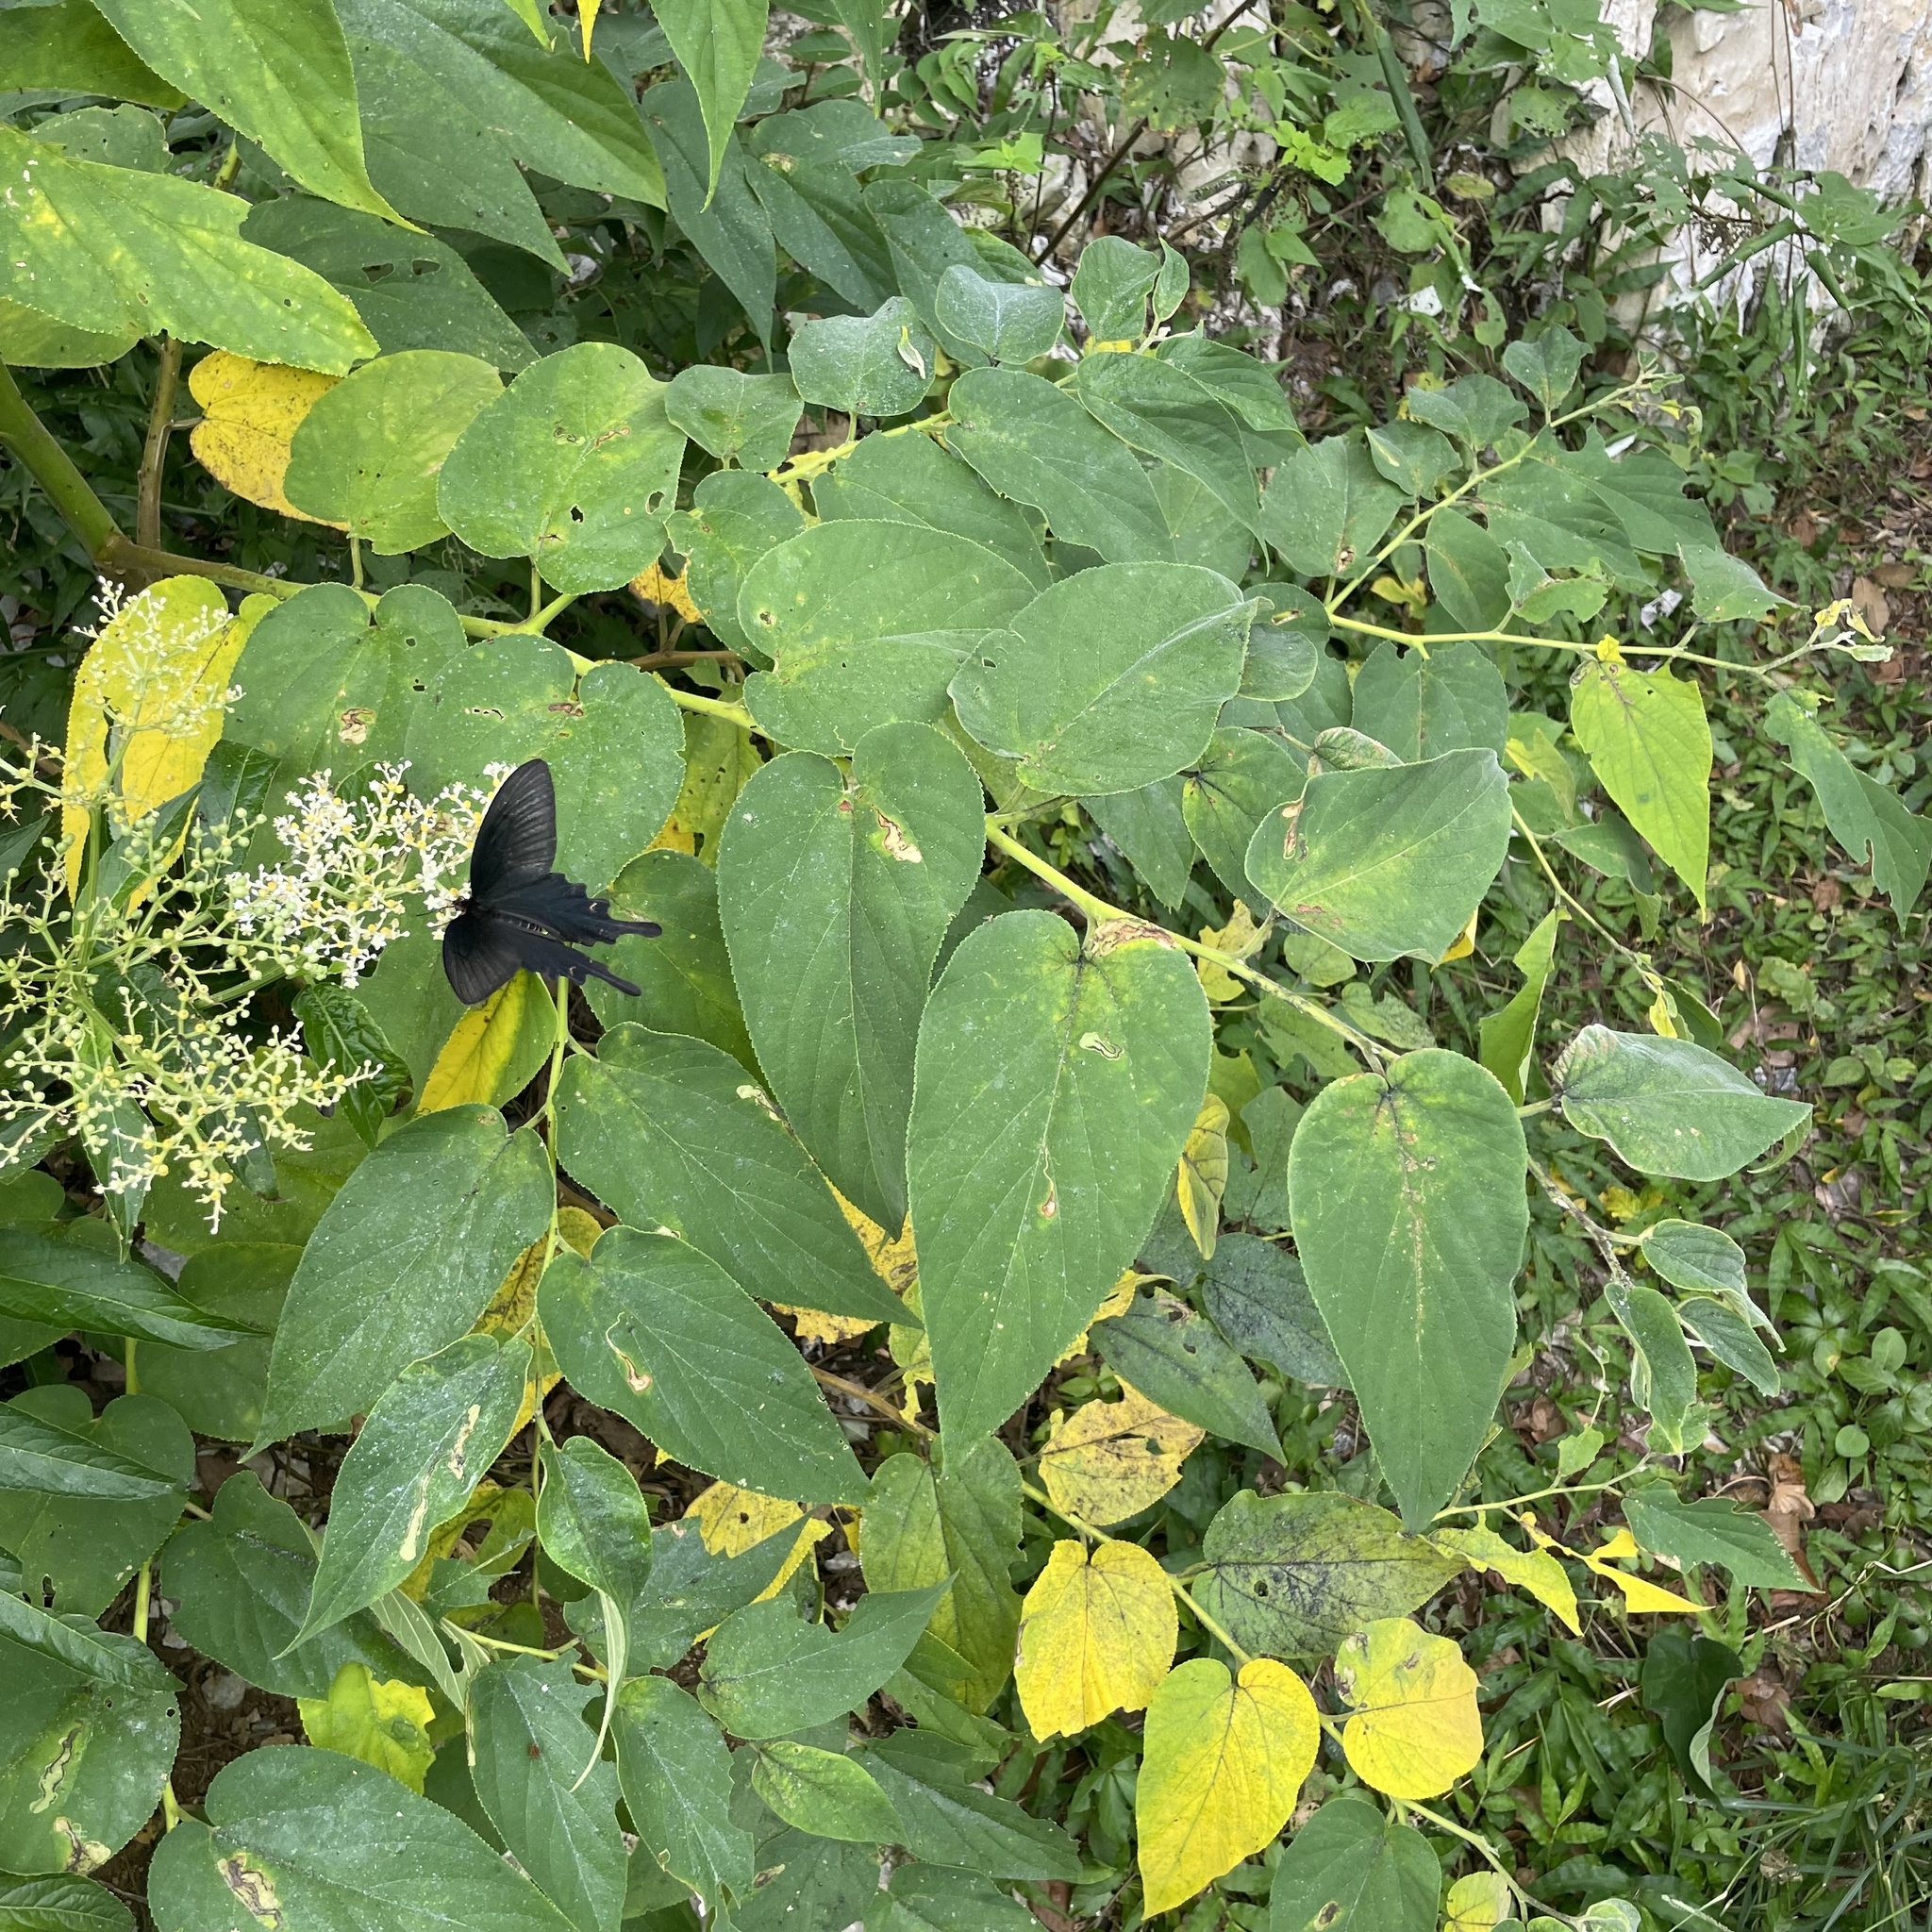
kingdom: Plantae
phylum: Tracheophyta
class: Magnoliopsida
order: Rosales
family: Cannabaceae
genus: Trema
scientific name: Trema orientale
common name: Indian charcoal tree
